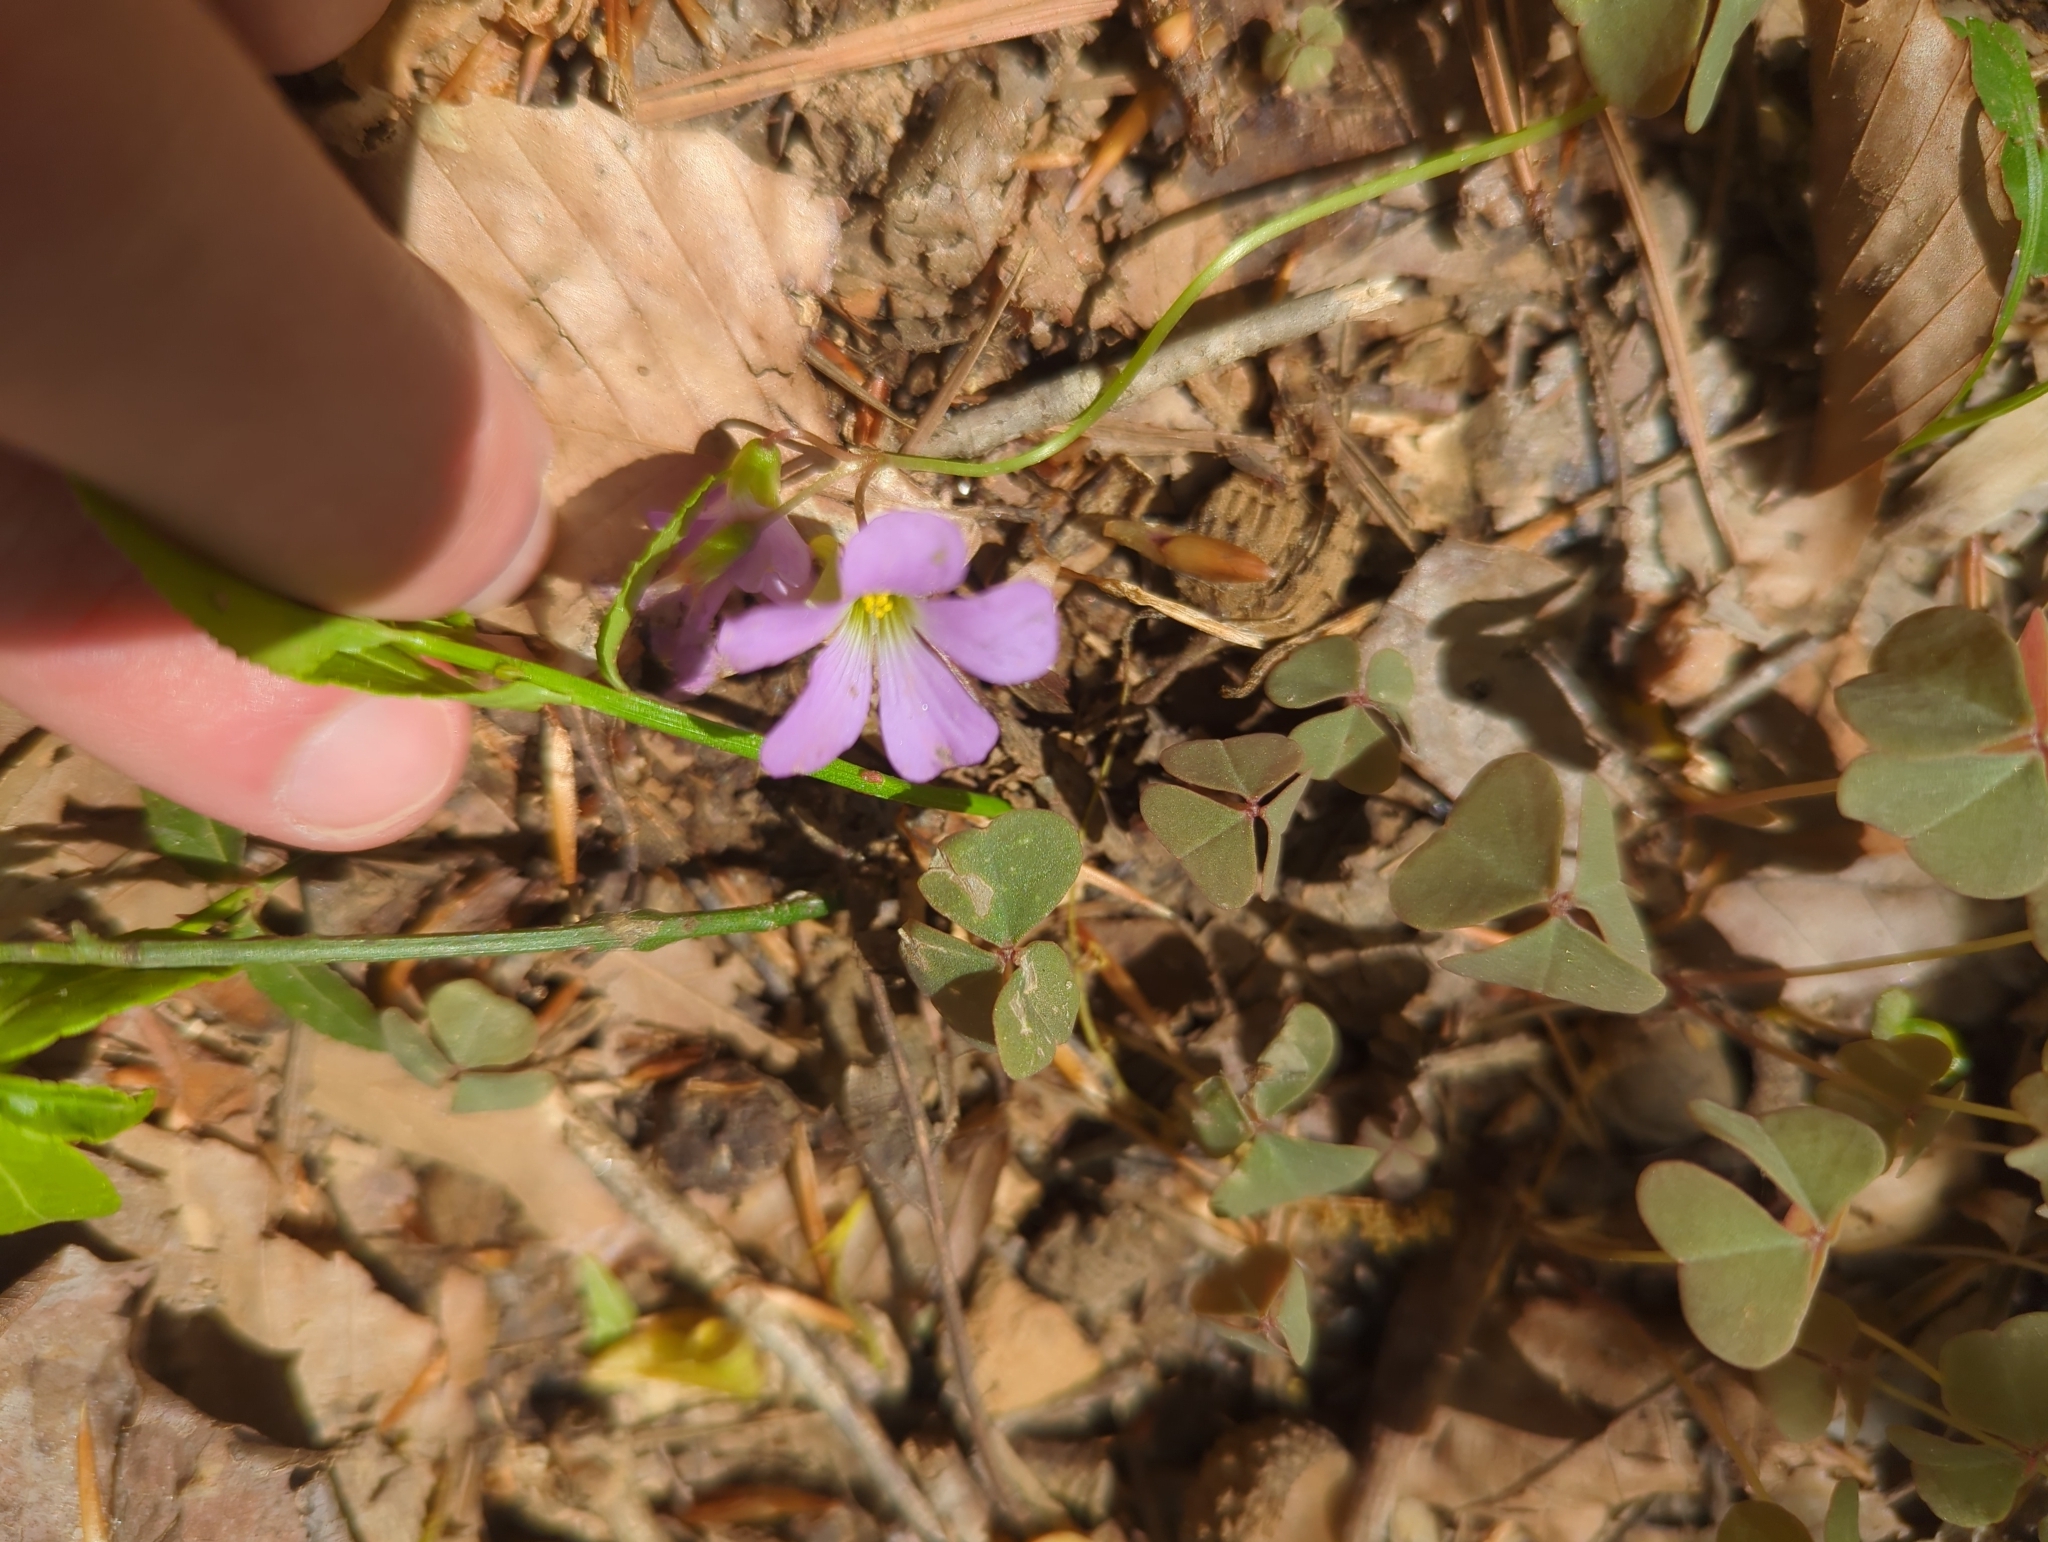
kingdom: Plantae
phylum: Tracheophyta
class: Magnoliopsida
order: Oxalidales
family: Oxalidaceae
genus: Oxalis
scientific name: Oxalis violacea
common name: Violet wood-sorrel
